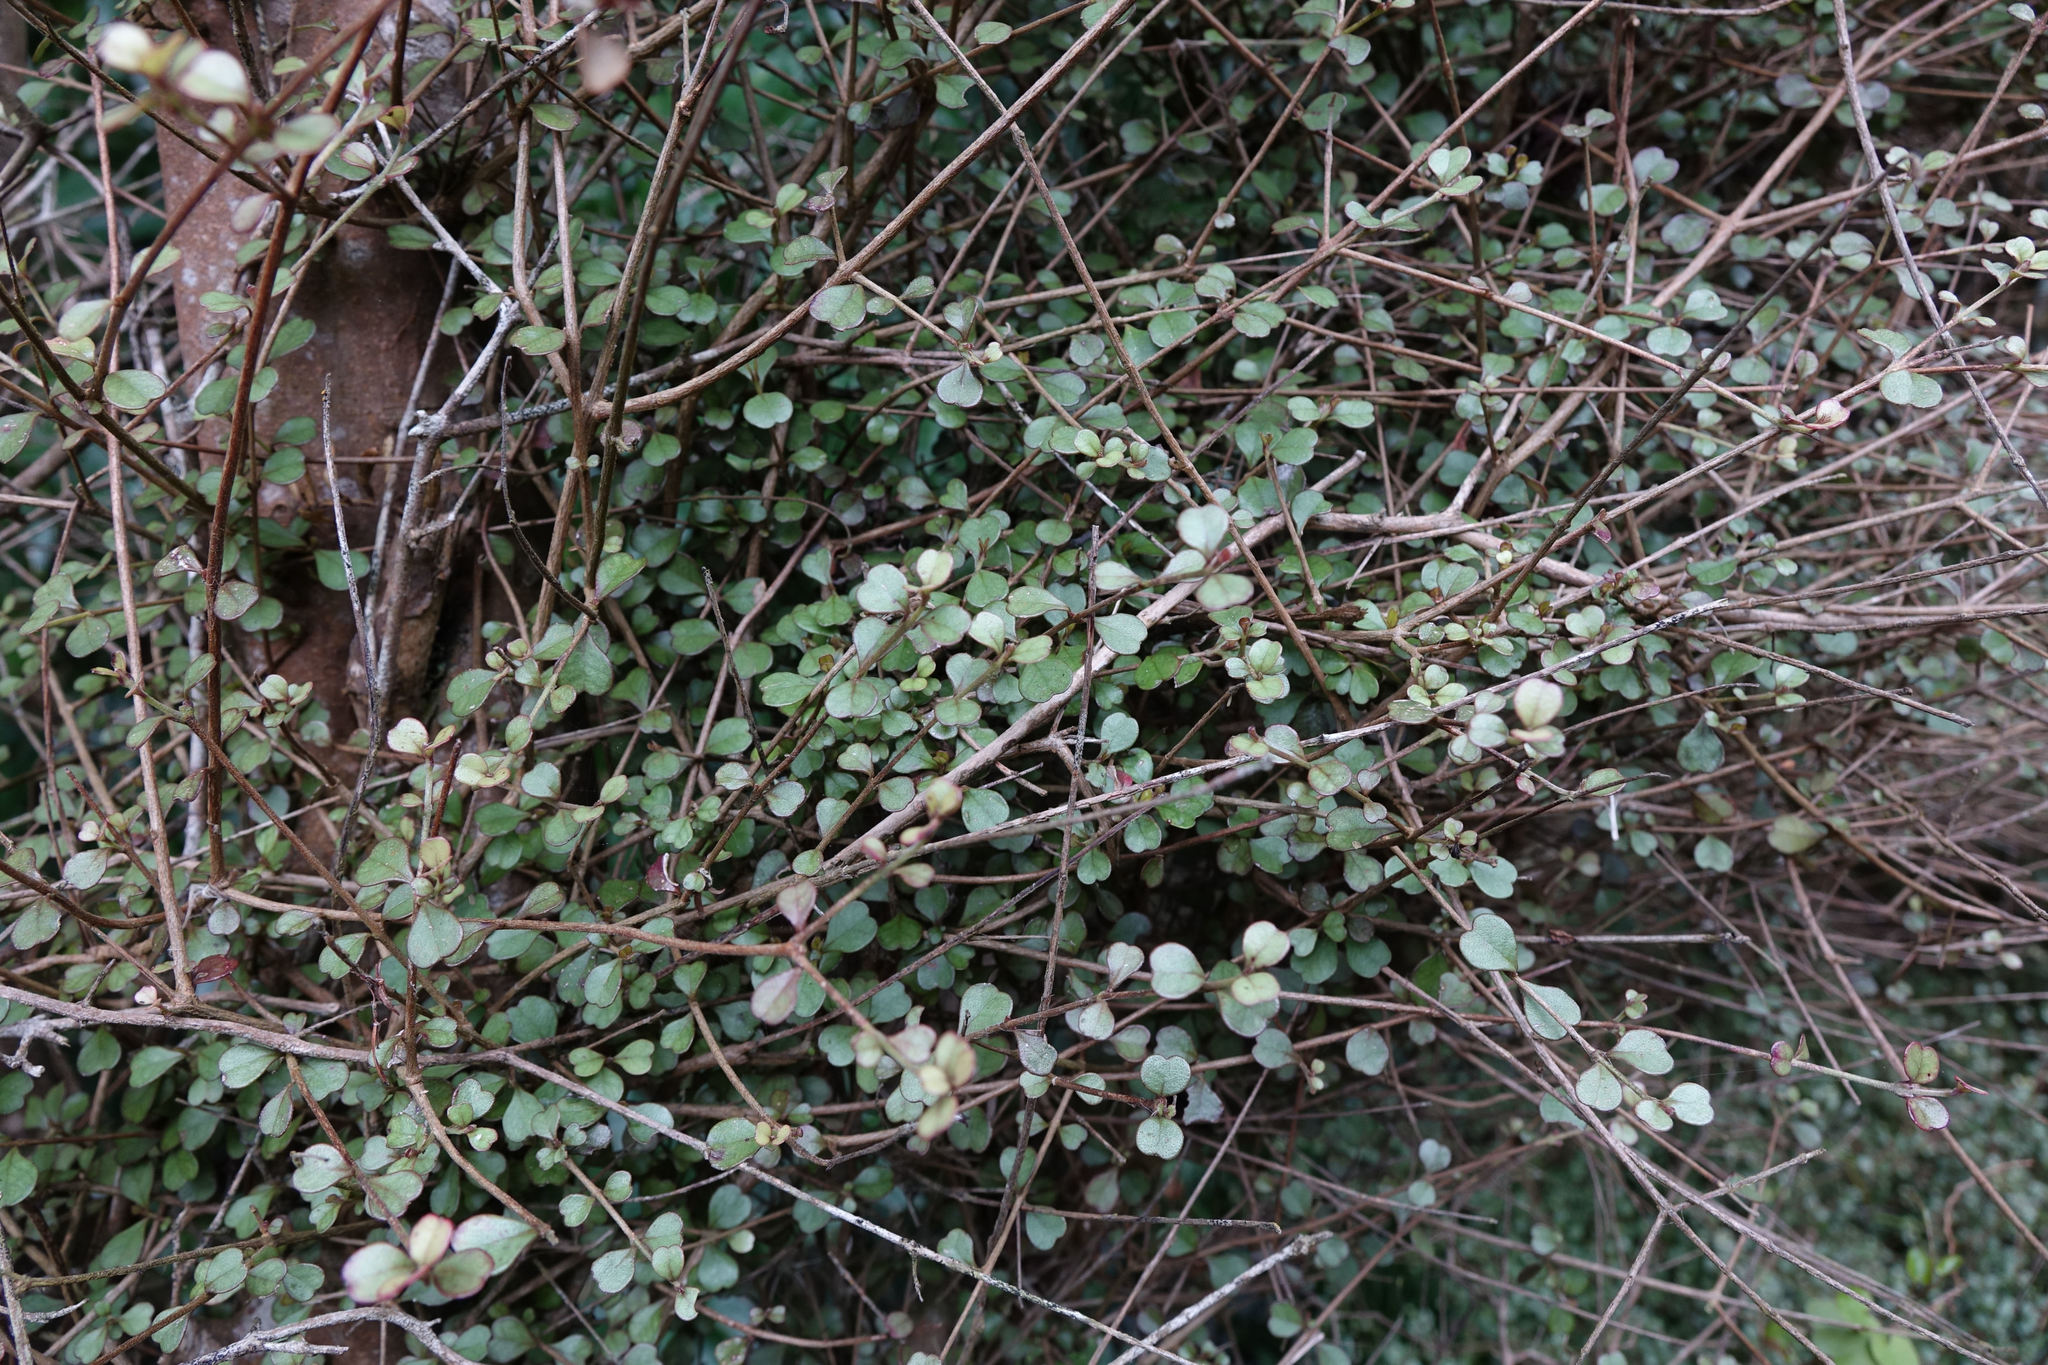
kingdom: Plantae
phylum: Tracheophyta
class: Magnoliopsida
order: Myrtales
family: Myrtaceae
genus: Lophomyrtus
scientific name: Lophomyrtus obcordata
